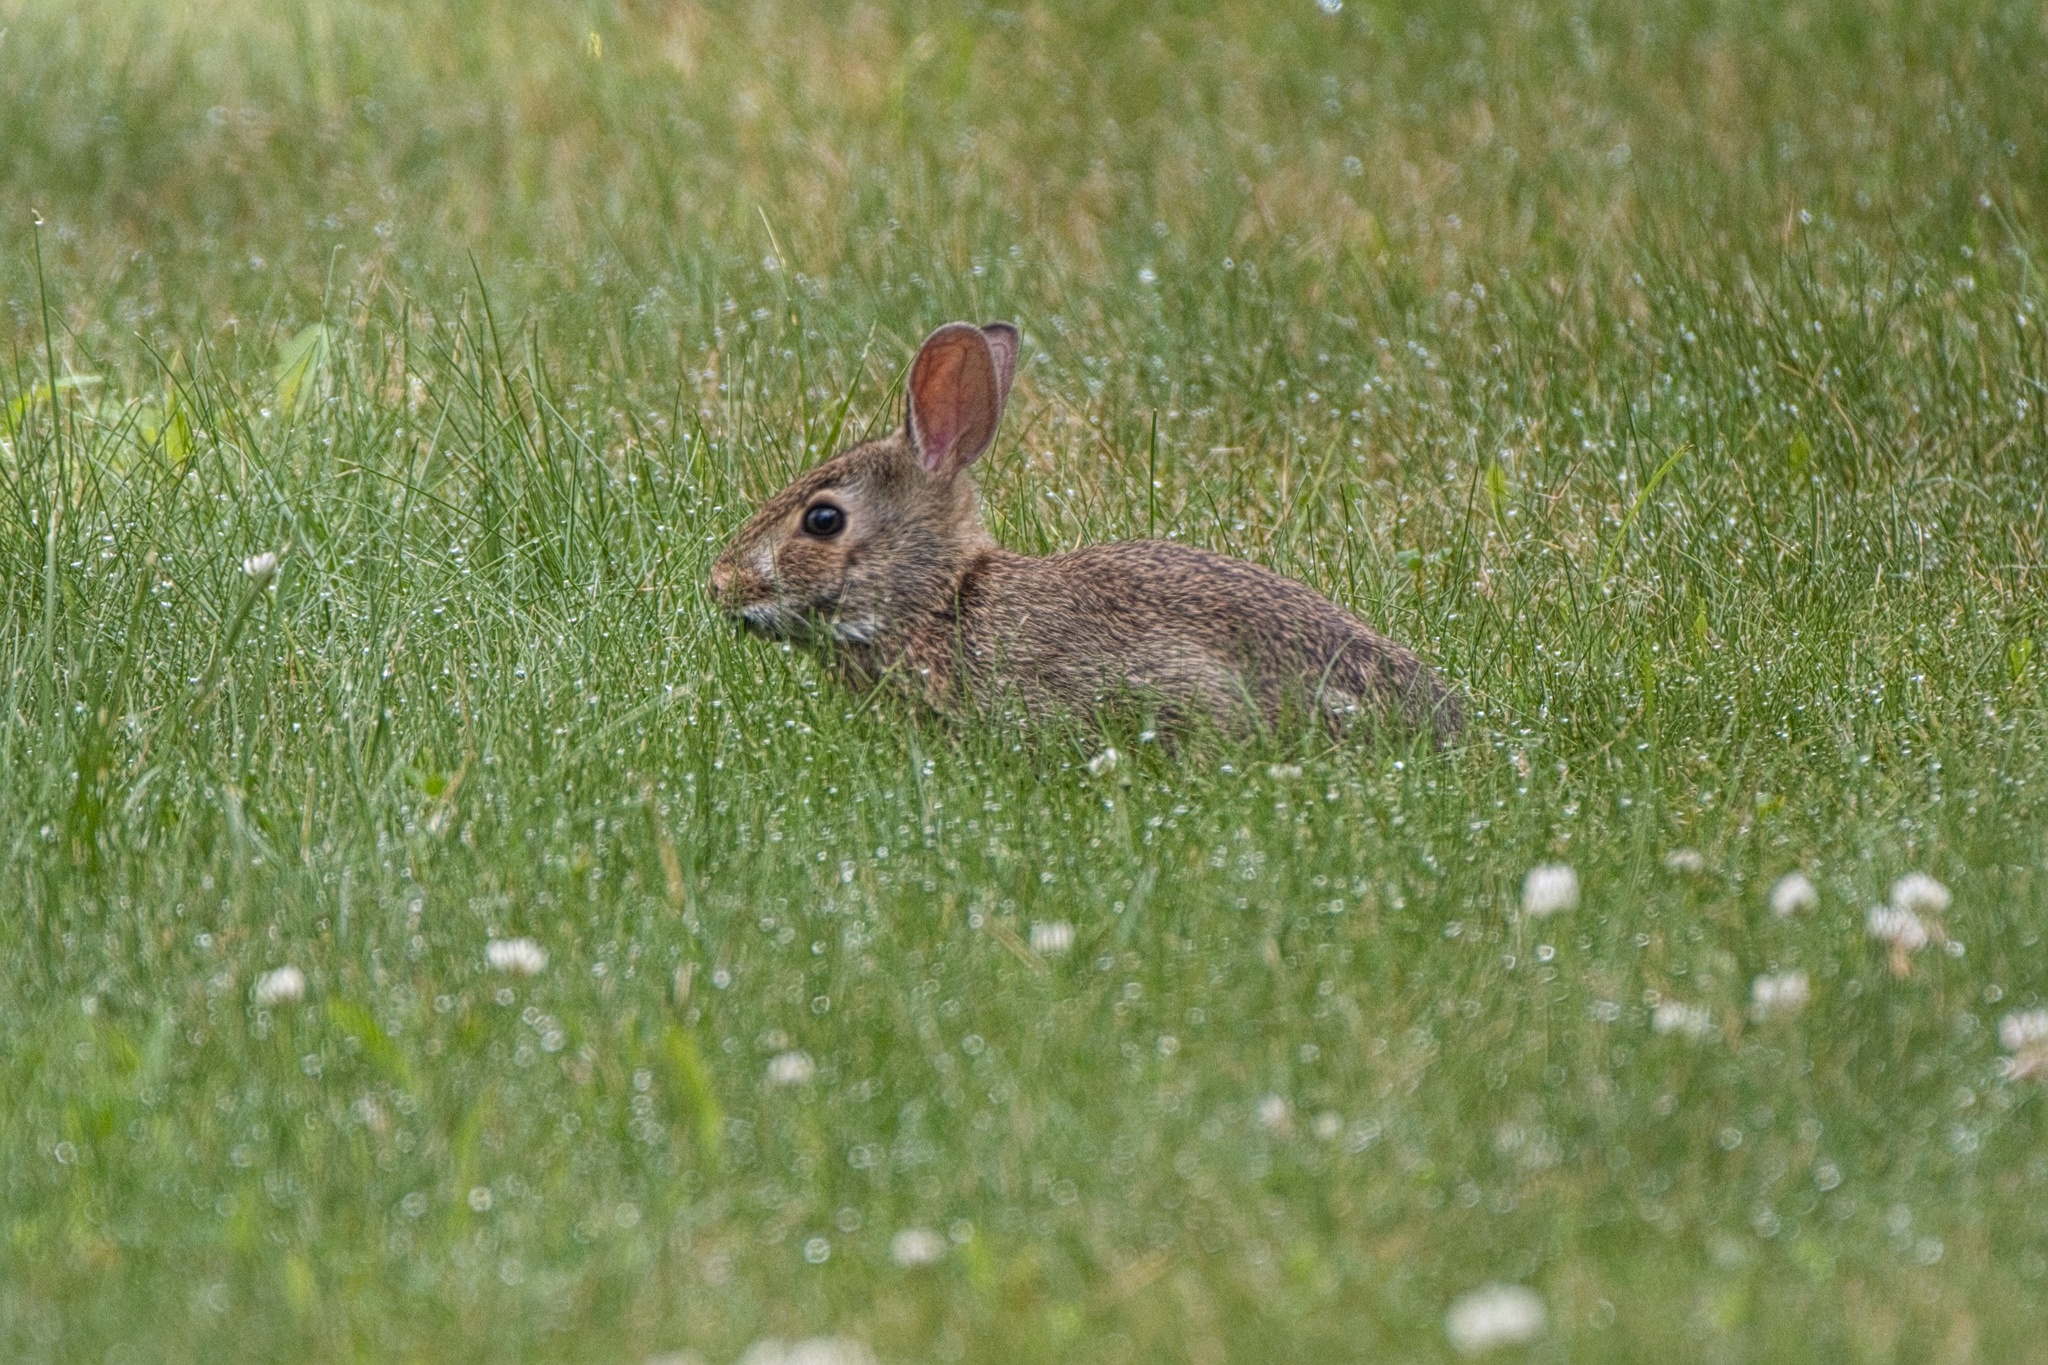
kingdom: Animalia
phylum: Chordata
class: Mammalia
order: Lagomorpha
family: Leporidae
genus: Sylvilagus
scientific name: Sylvilagus floridanus
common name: Eastern cottontail
